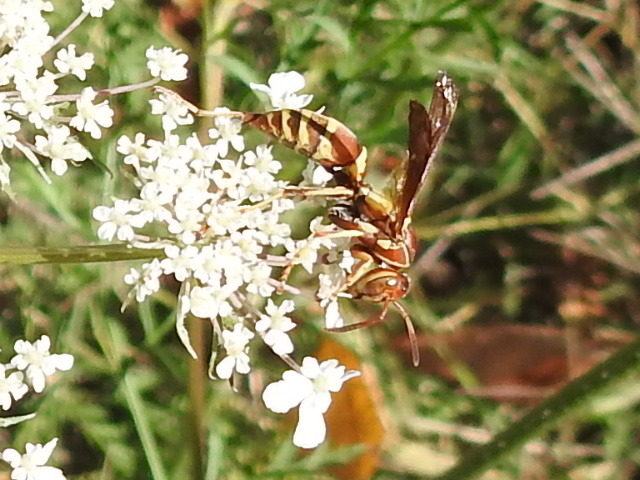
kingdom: Animalia
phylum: Arthropoda
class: Insecta
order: Hymenoptera
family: Eumenidae
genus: Polistes
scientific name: Polistes dorsalis
